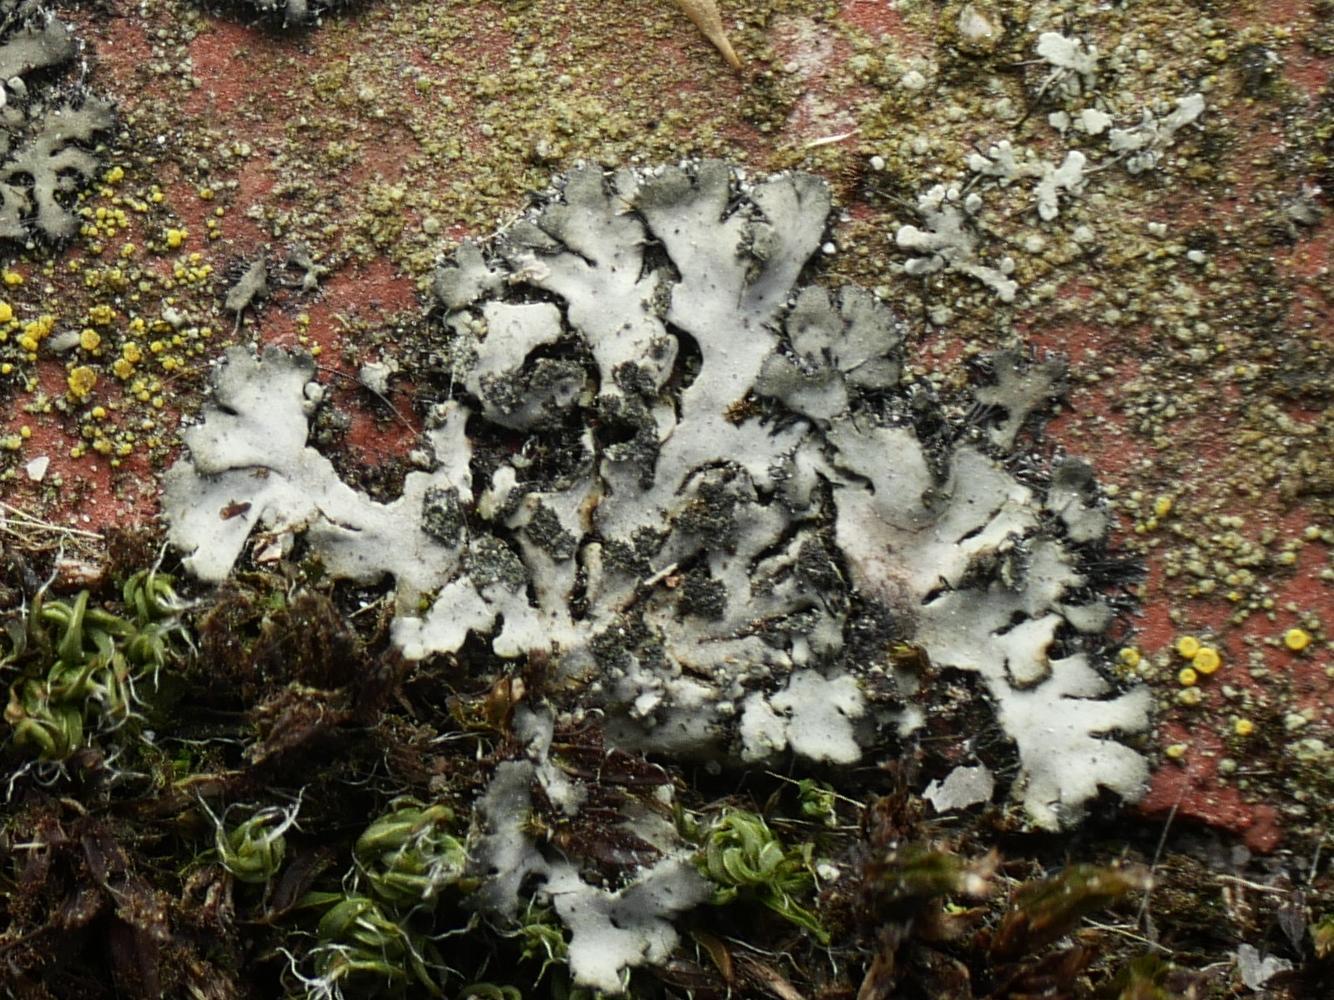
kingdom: Fungi
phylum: Ascomycota
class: Lecanoromycetes
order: Caliciales
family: Physciaceae
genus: Phaeophyscia
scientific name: Phaeophyscia orbicularis
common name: Mealy shadow lichen
